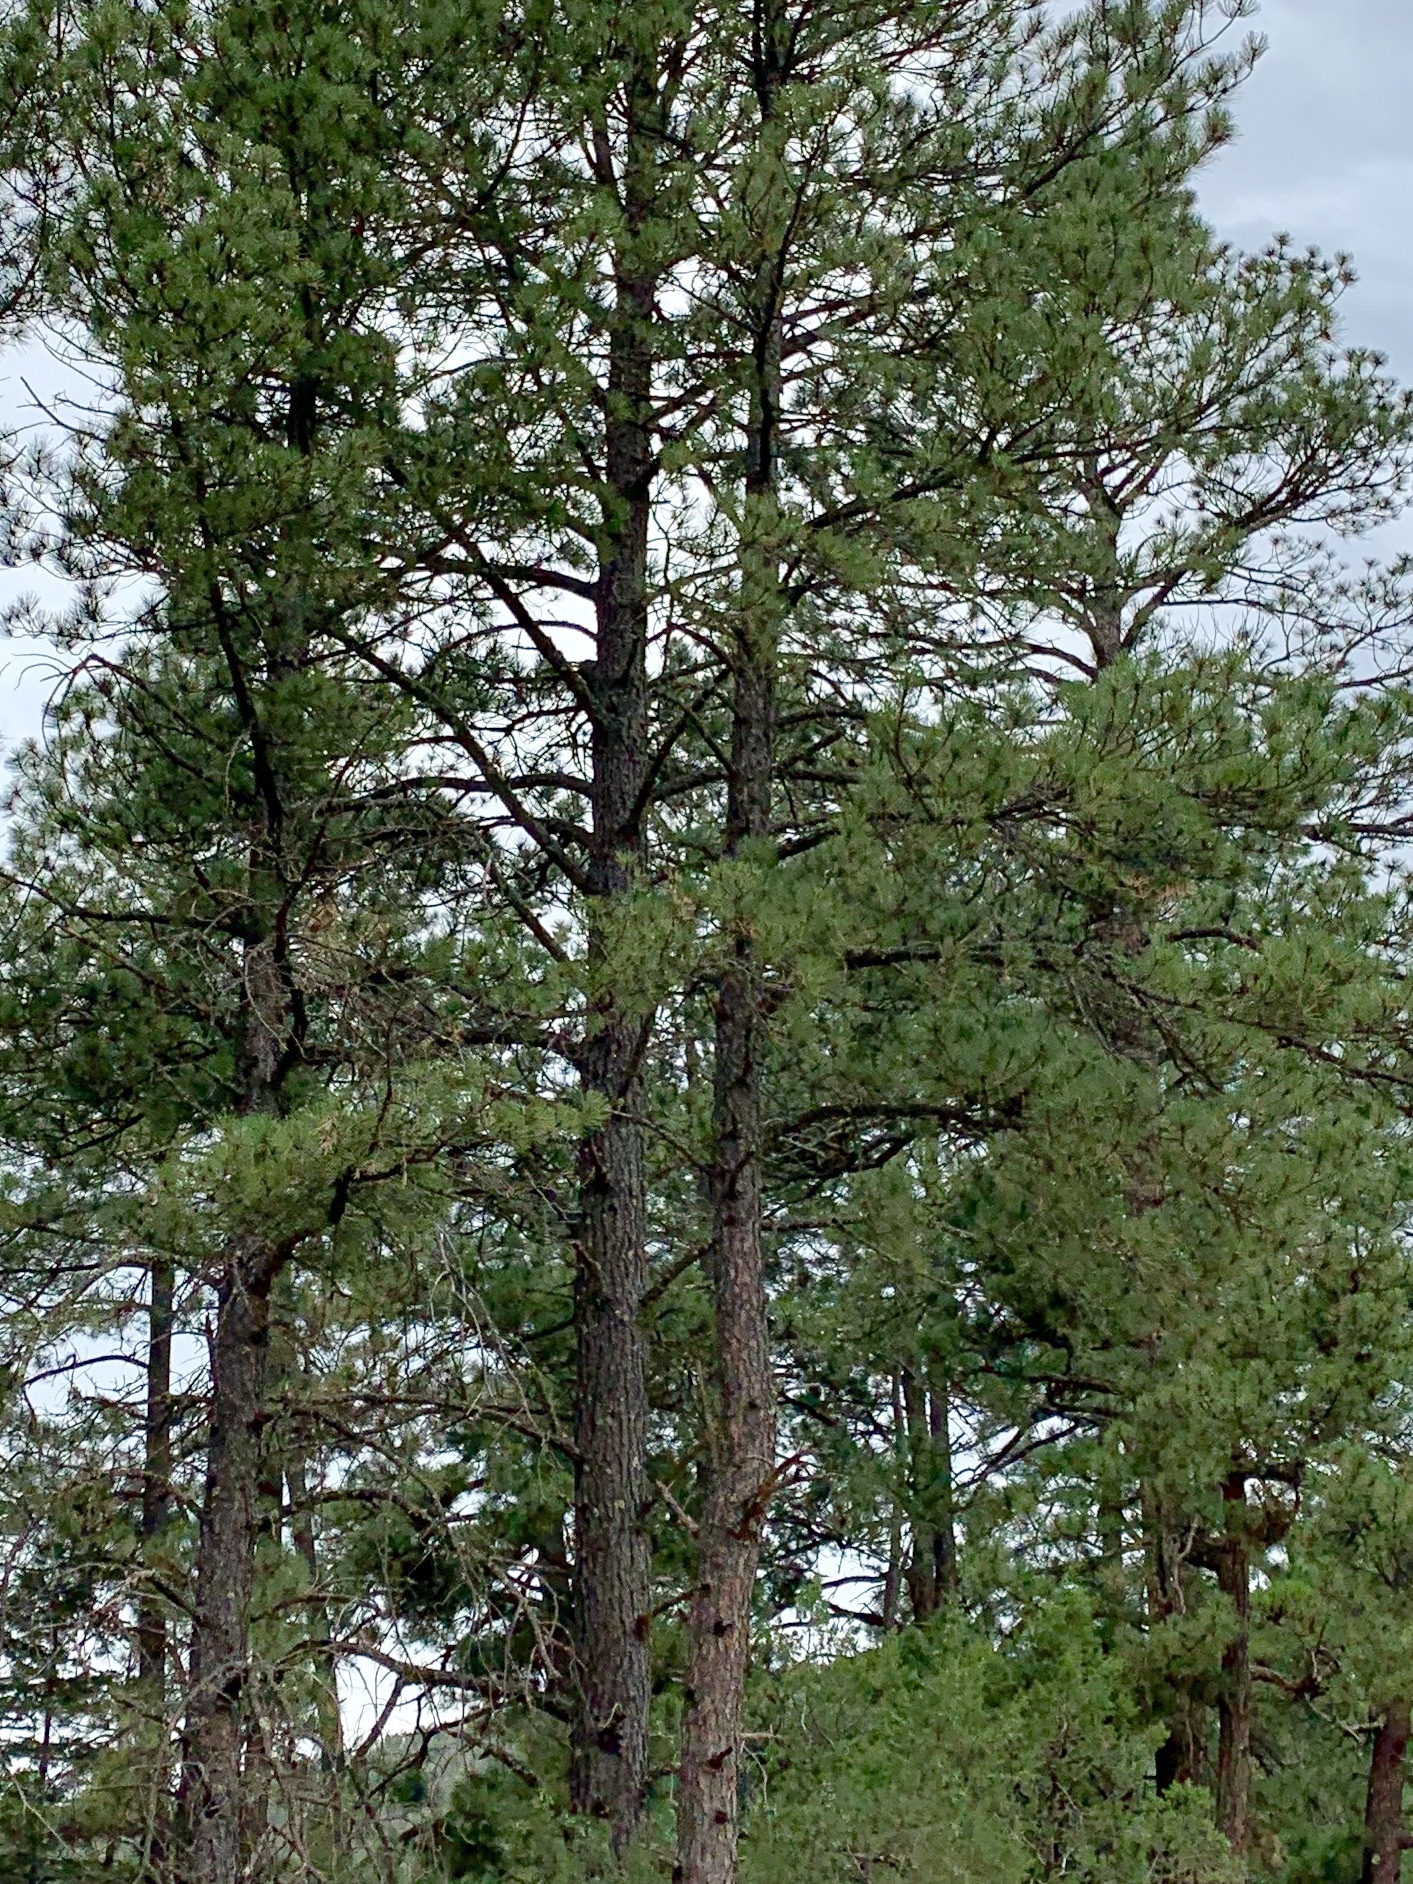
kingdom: Plantae
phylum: Tracheophyta
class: Pinopsida
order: Pinales
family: Pinaceae
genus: Pinus
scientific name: Pinus ponderosa
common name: Western yellow-pine
